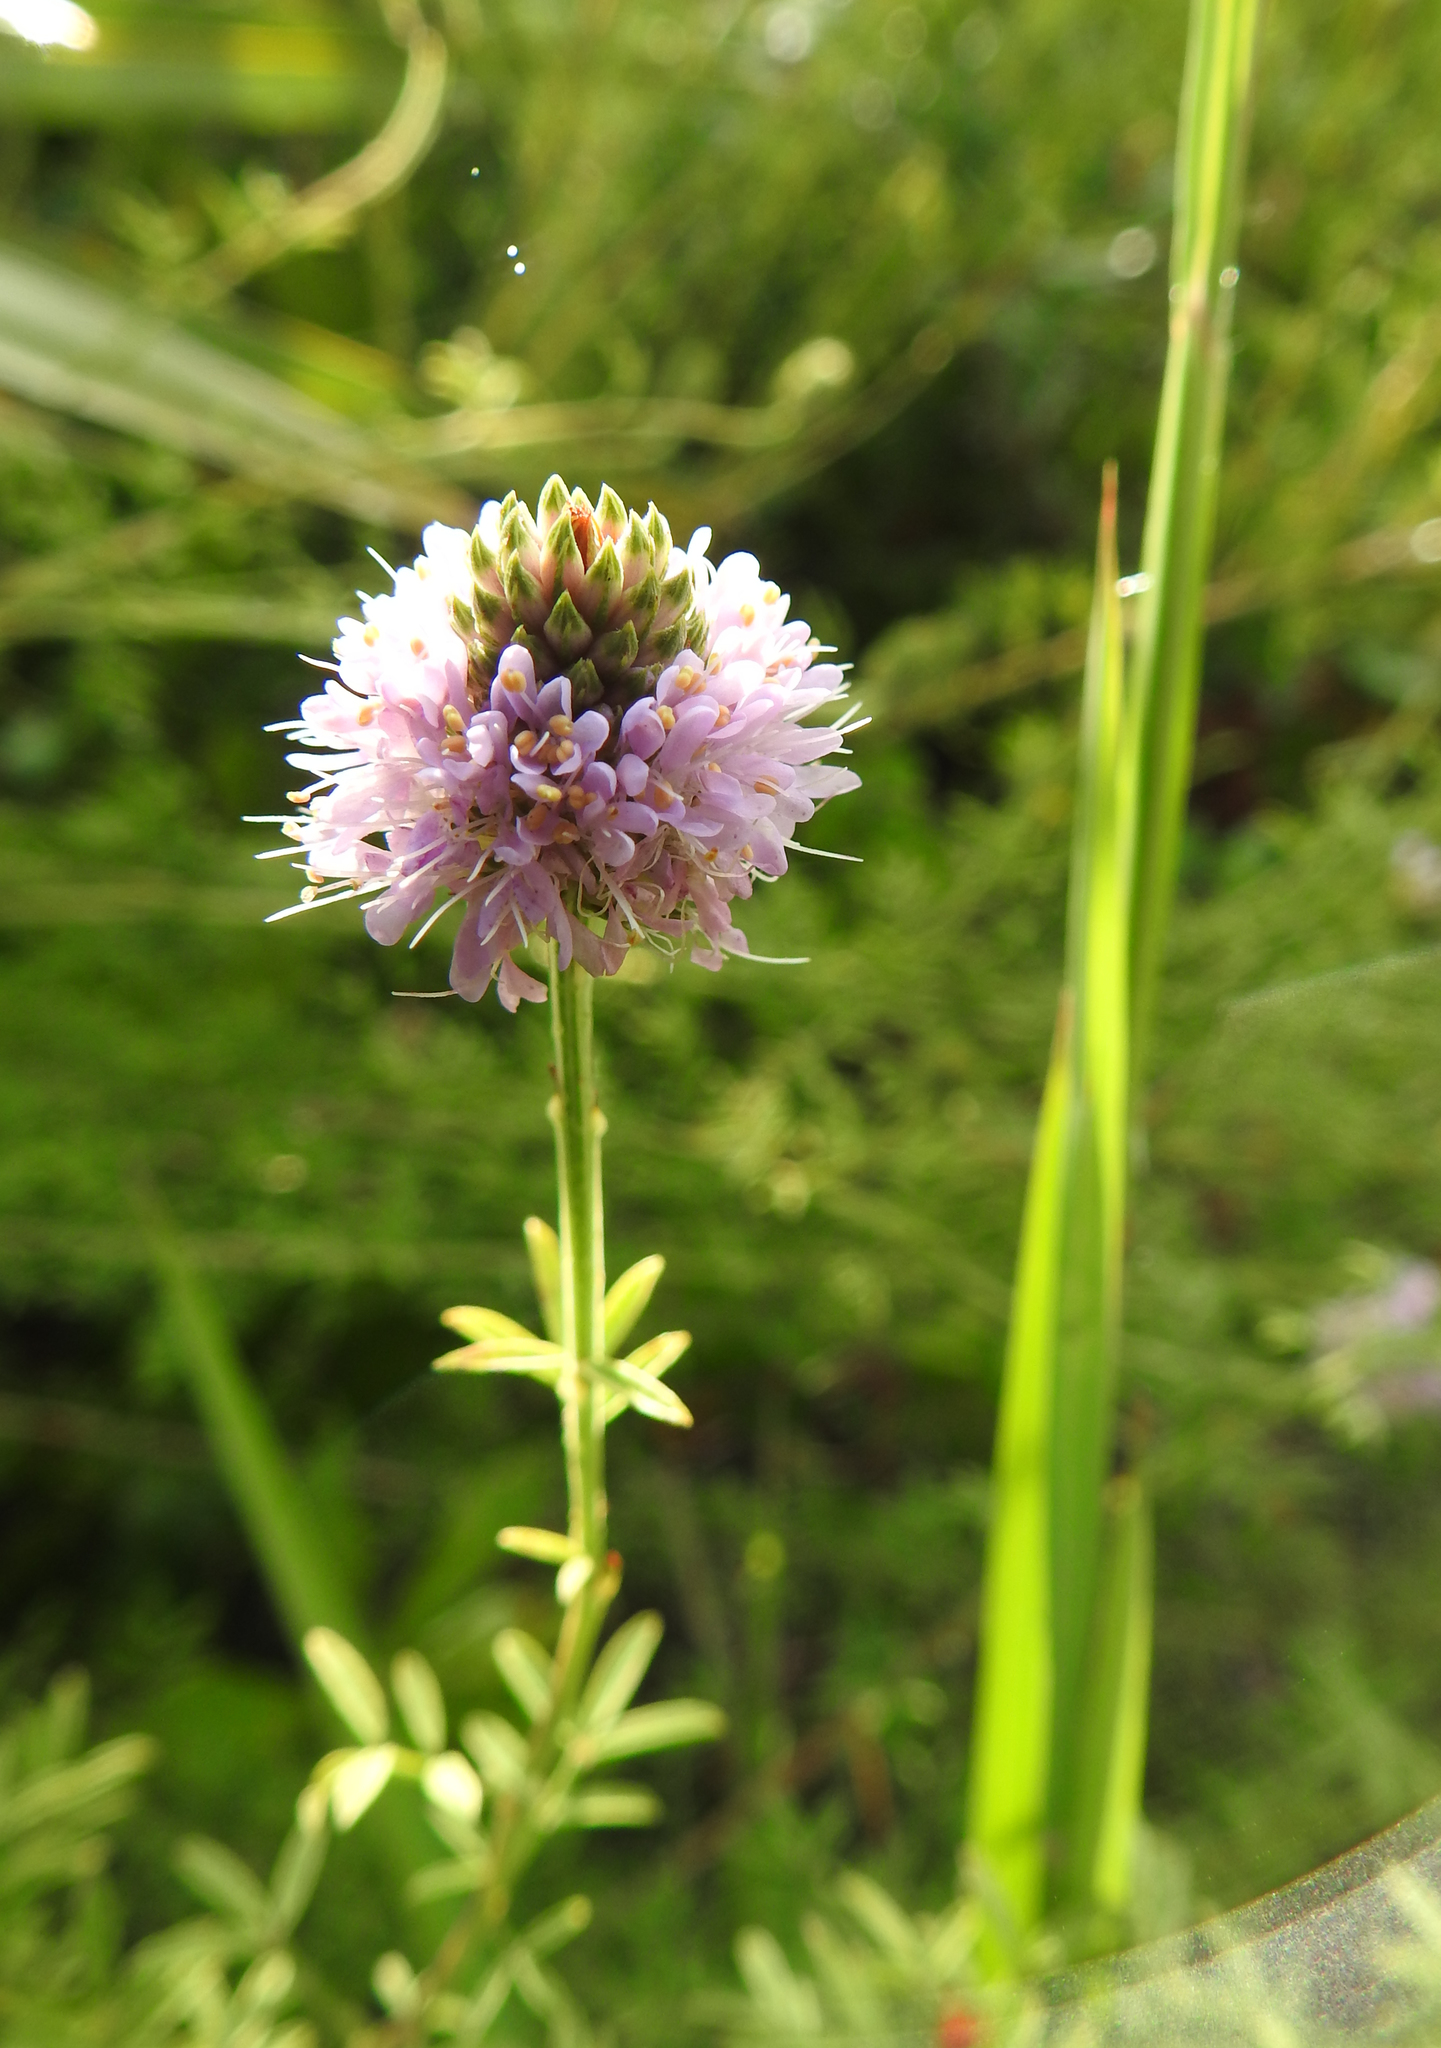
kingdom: Plantae
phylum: Tracheophyta
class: Magnoliopsida
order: Fabales
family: Fabaceae
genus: Dalea
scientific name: Dalea carnea
